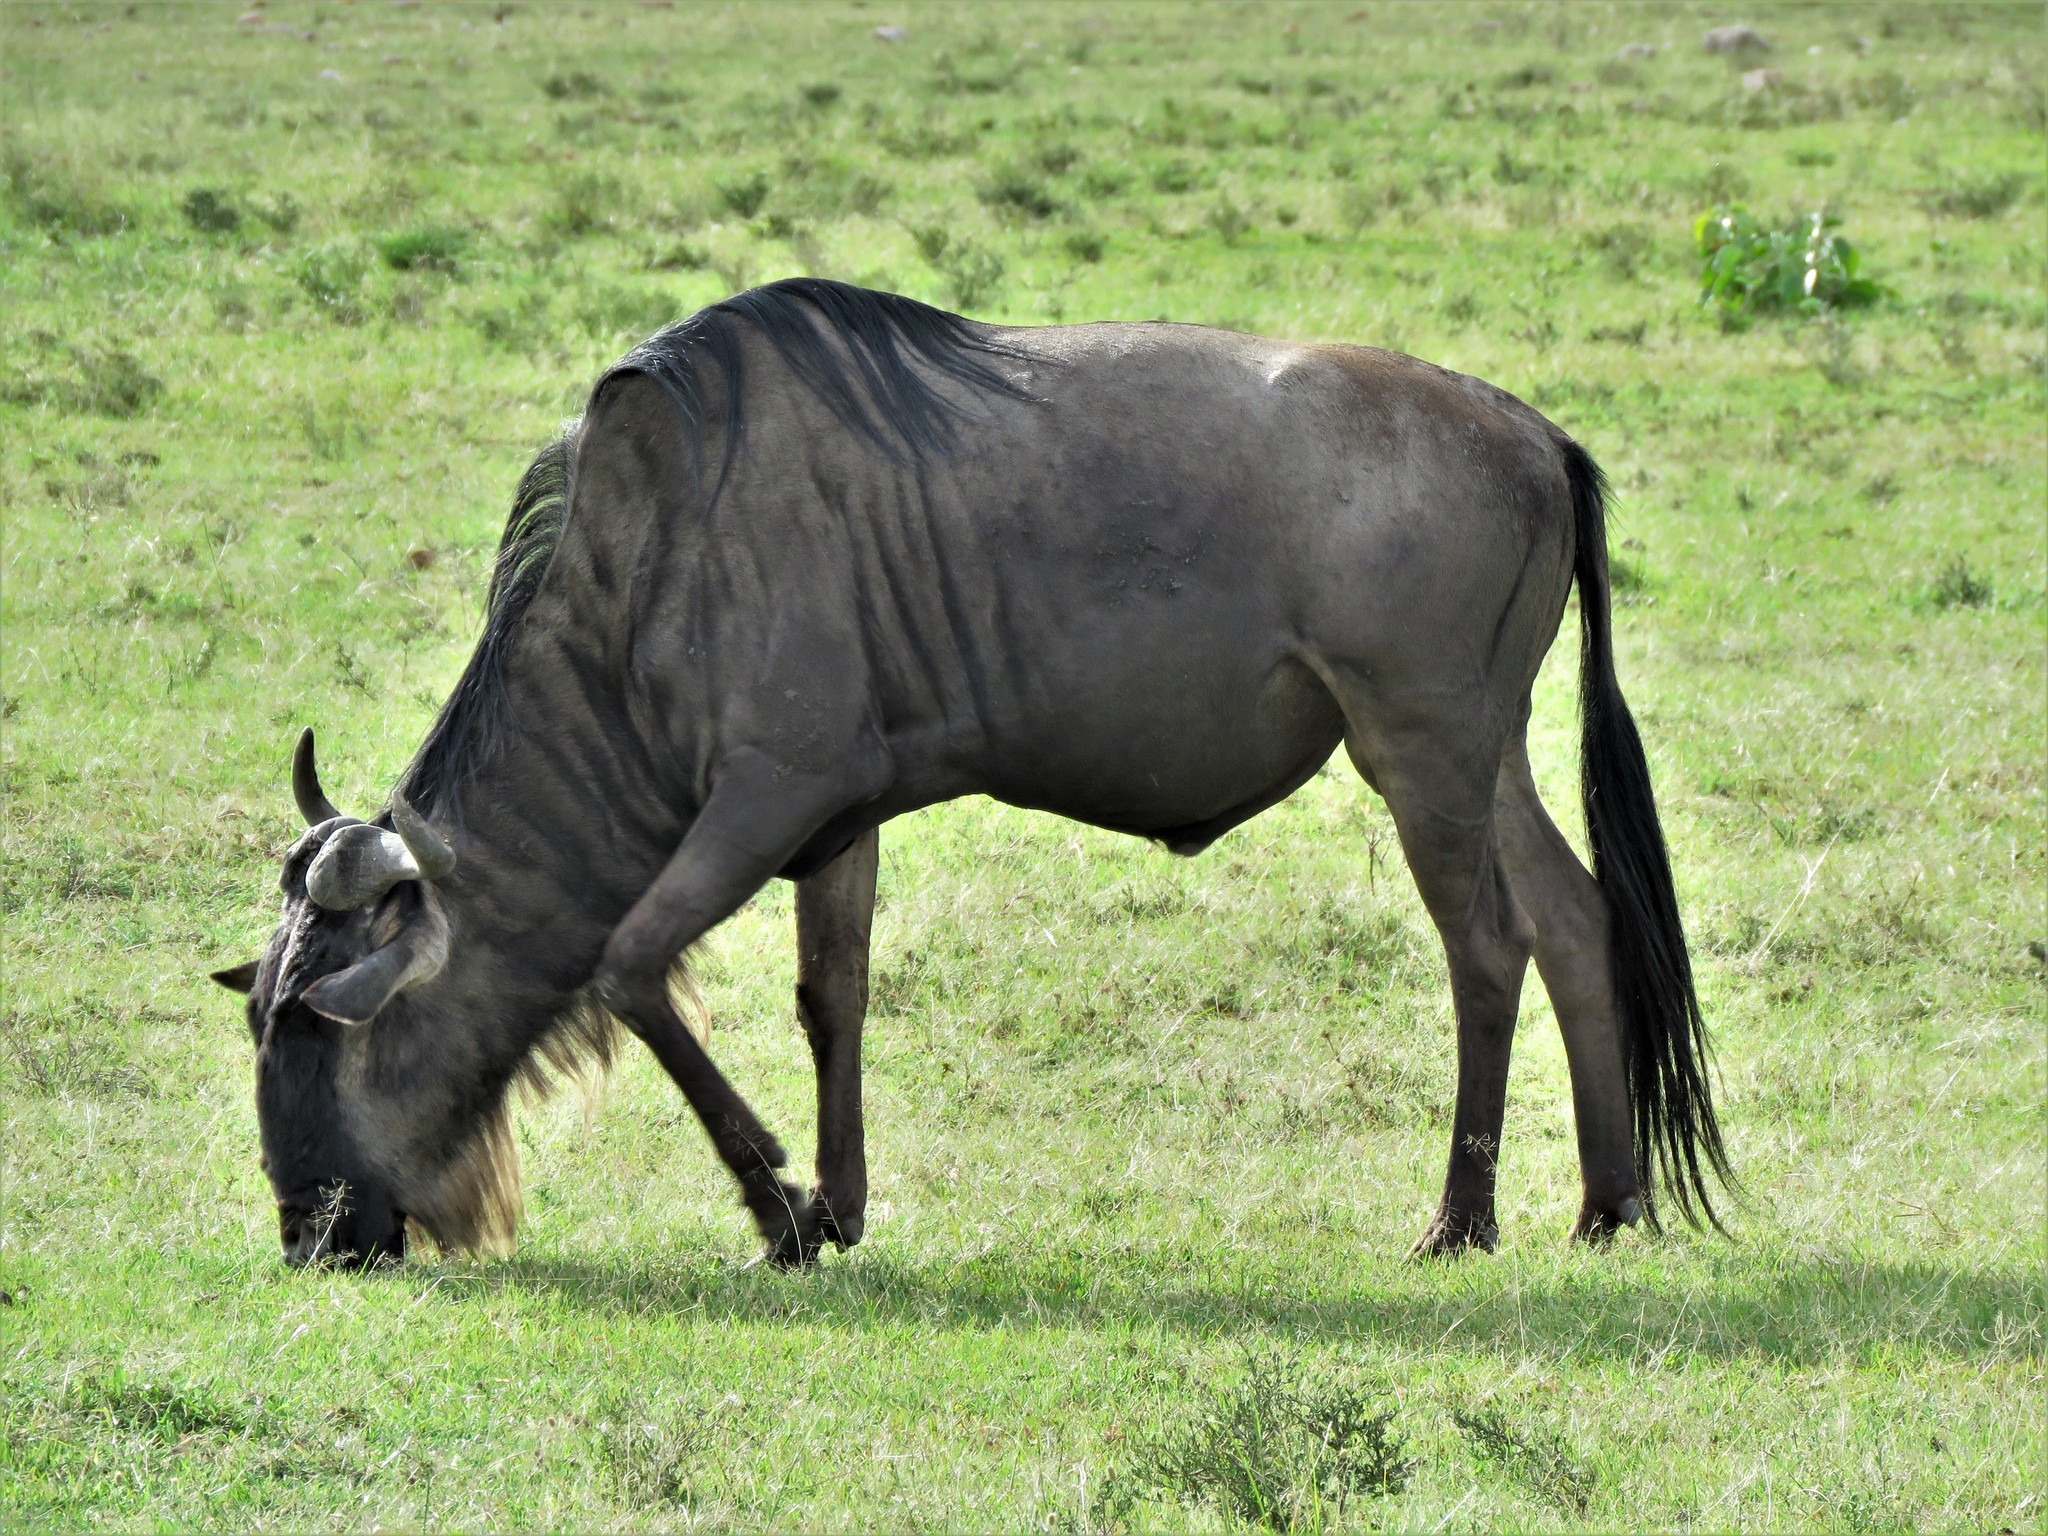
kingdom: Animalia
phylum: Chordata
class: Mammalia
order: Artiodactyla
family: Bovidae
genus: Connochaetes
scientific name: Connochaetes taurinus
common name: Blue wildebeest
